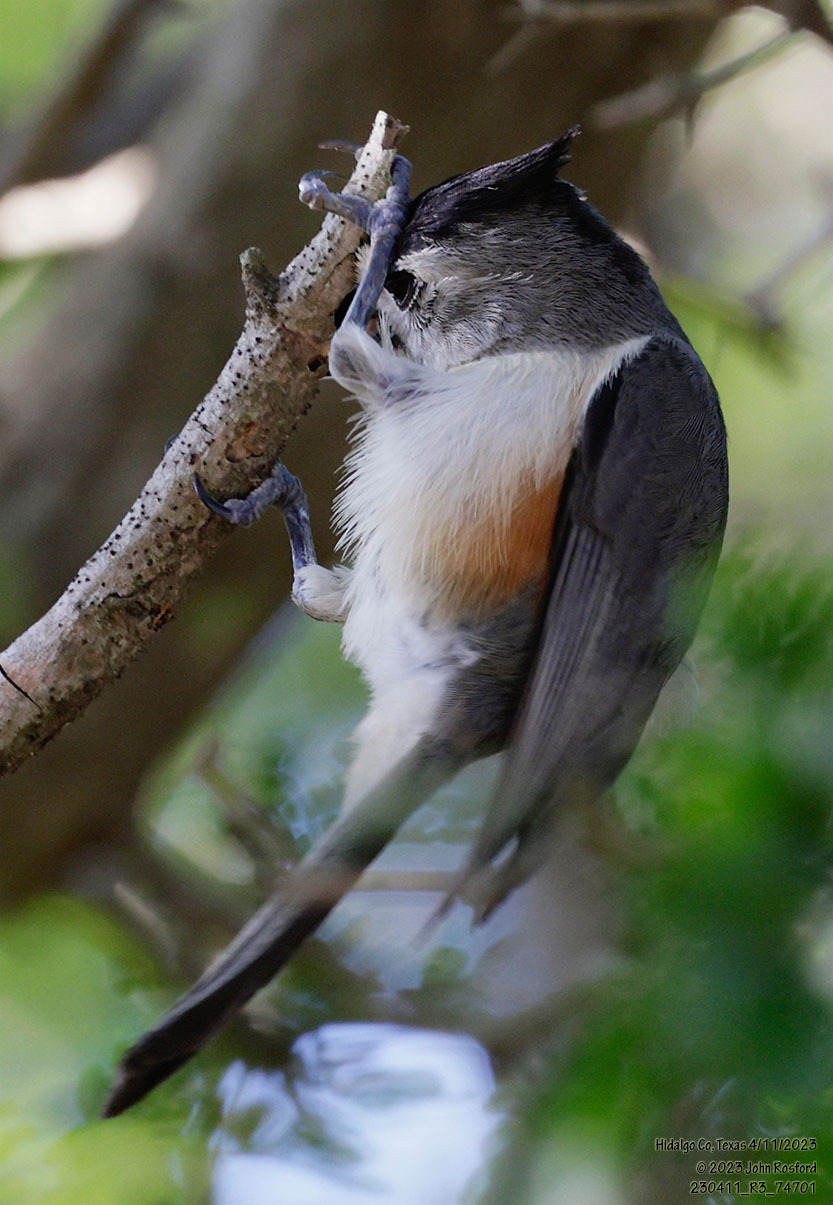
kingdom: Animalia
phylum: Chordata
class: Aves
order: Passeriformes
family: Paridae
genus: Baeolophus
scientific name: Baeolophus atricristatus
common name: Black-crested titmouse
